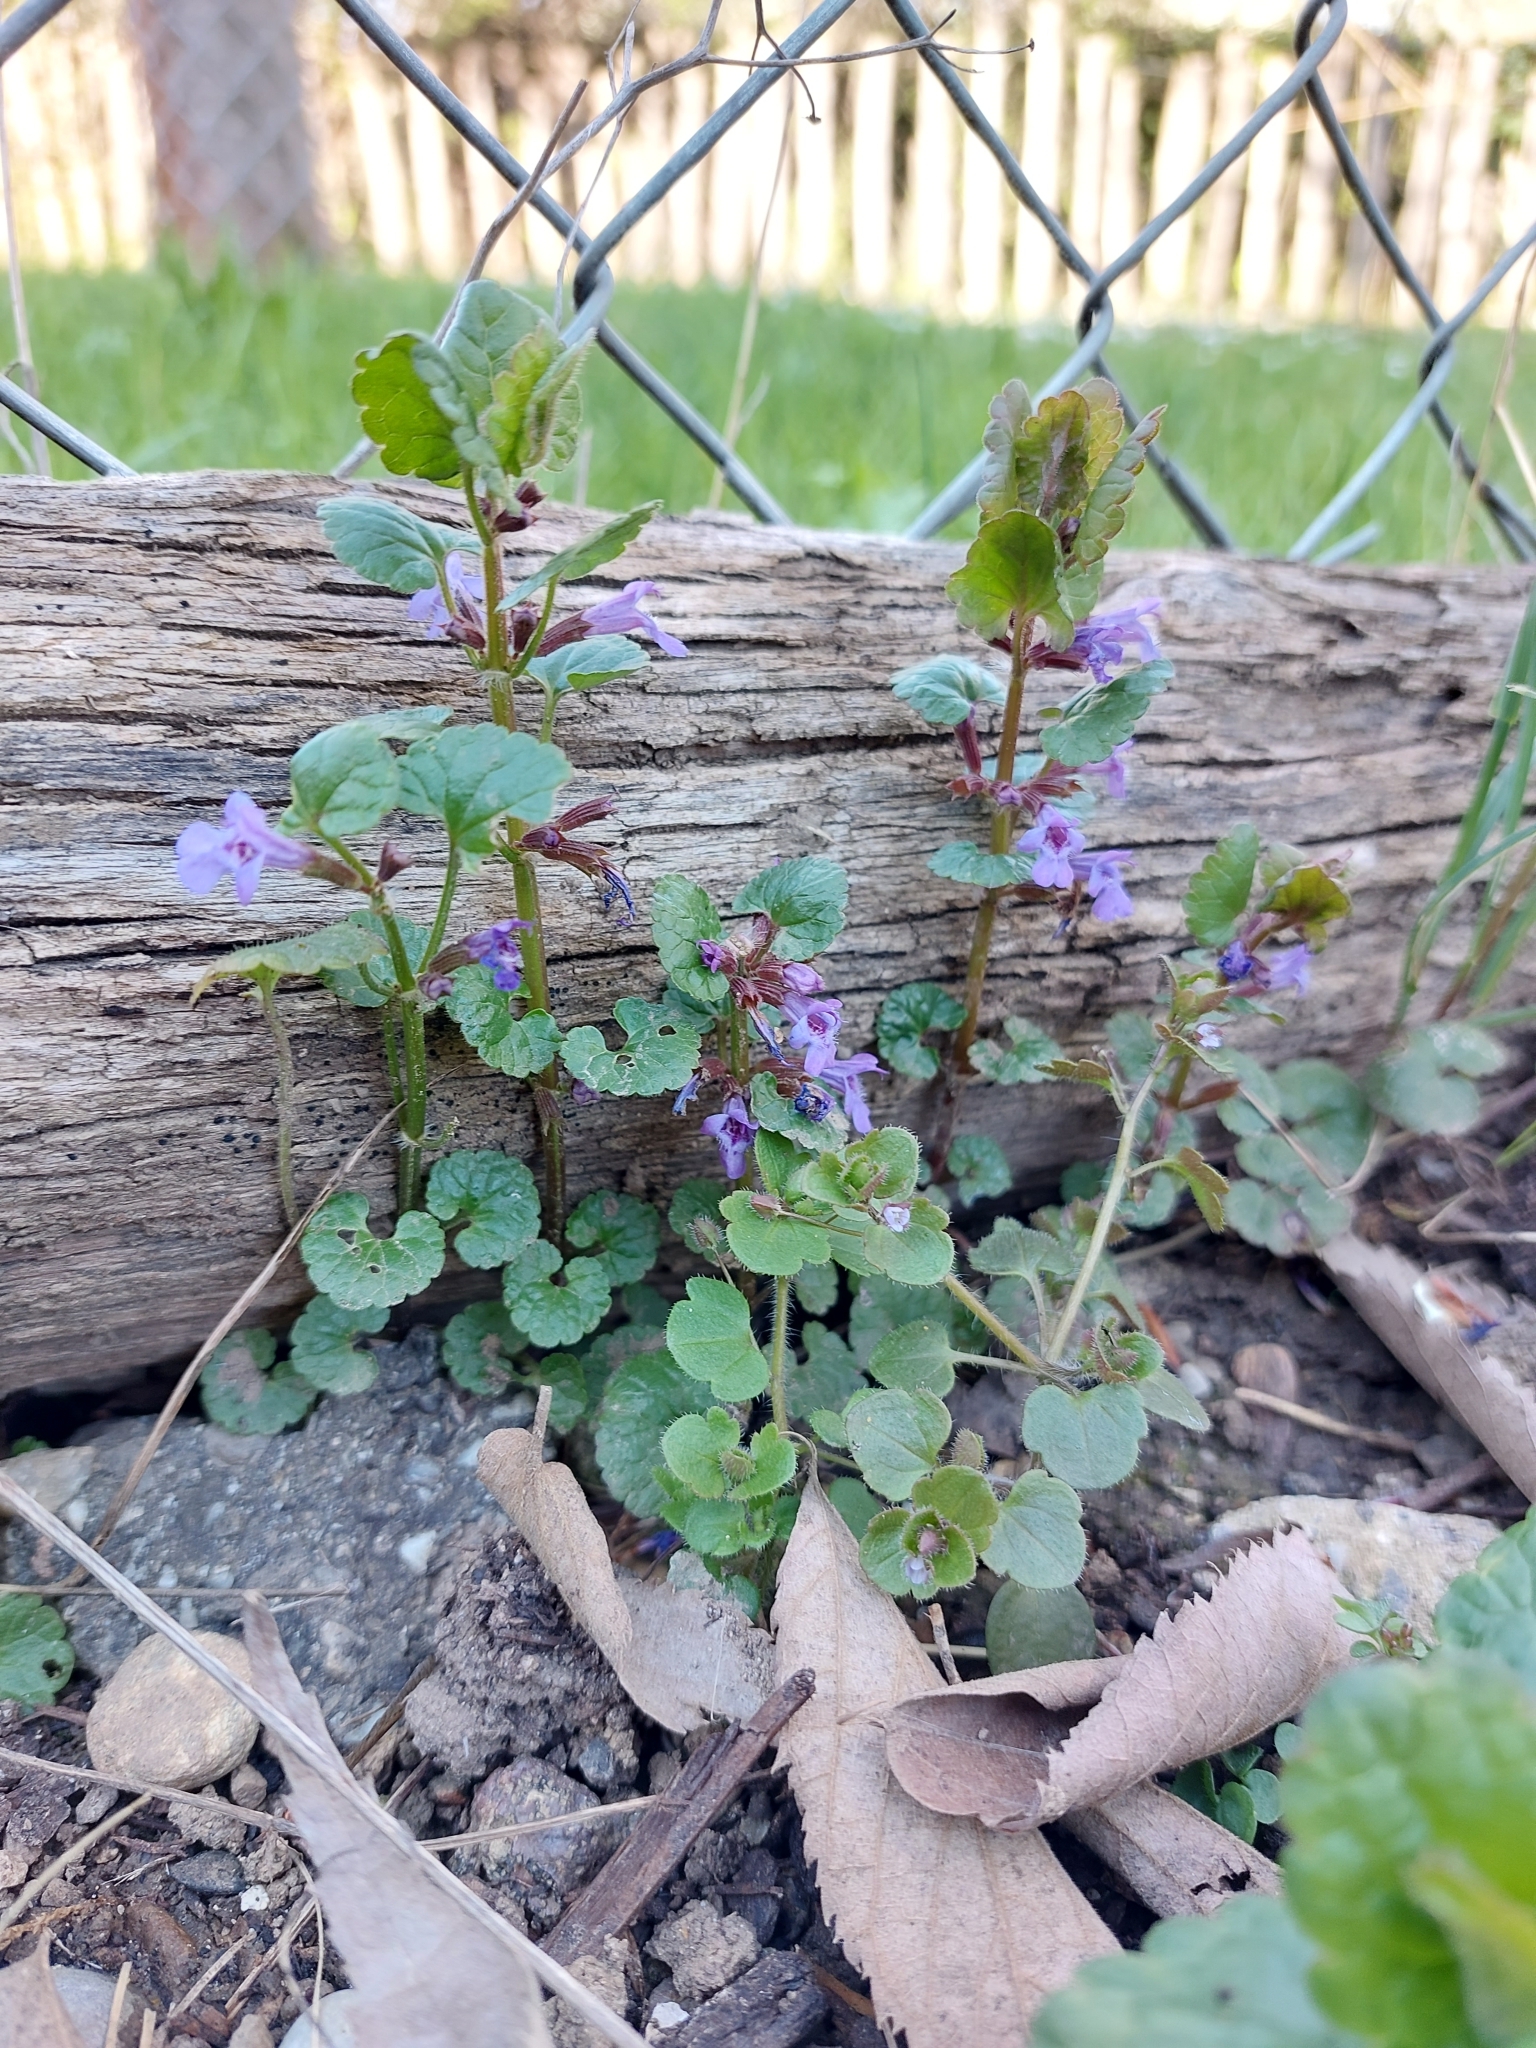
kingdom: Plantae
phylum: Tracheophyta
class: Magnoliopsida
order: Lamiales
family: Lamiaceae
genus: Glechoma
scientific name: Glechoma hederacea
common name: Ground ivy
